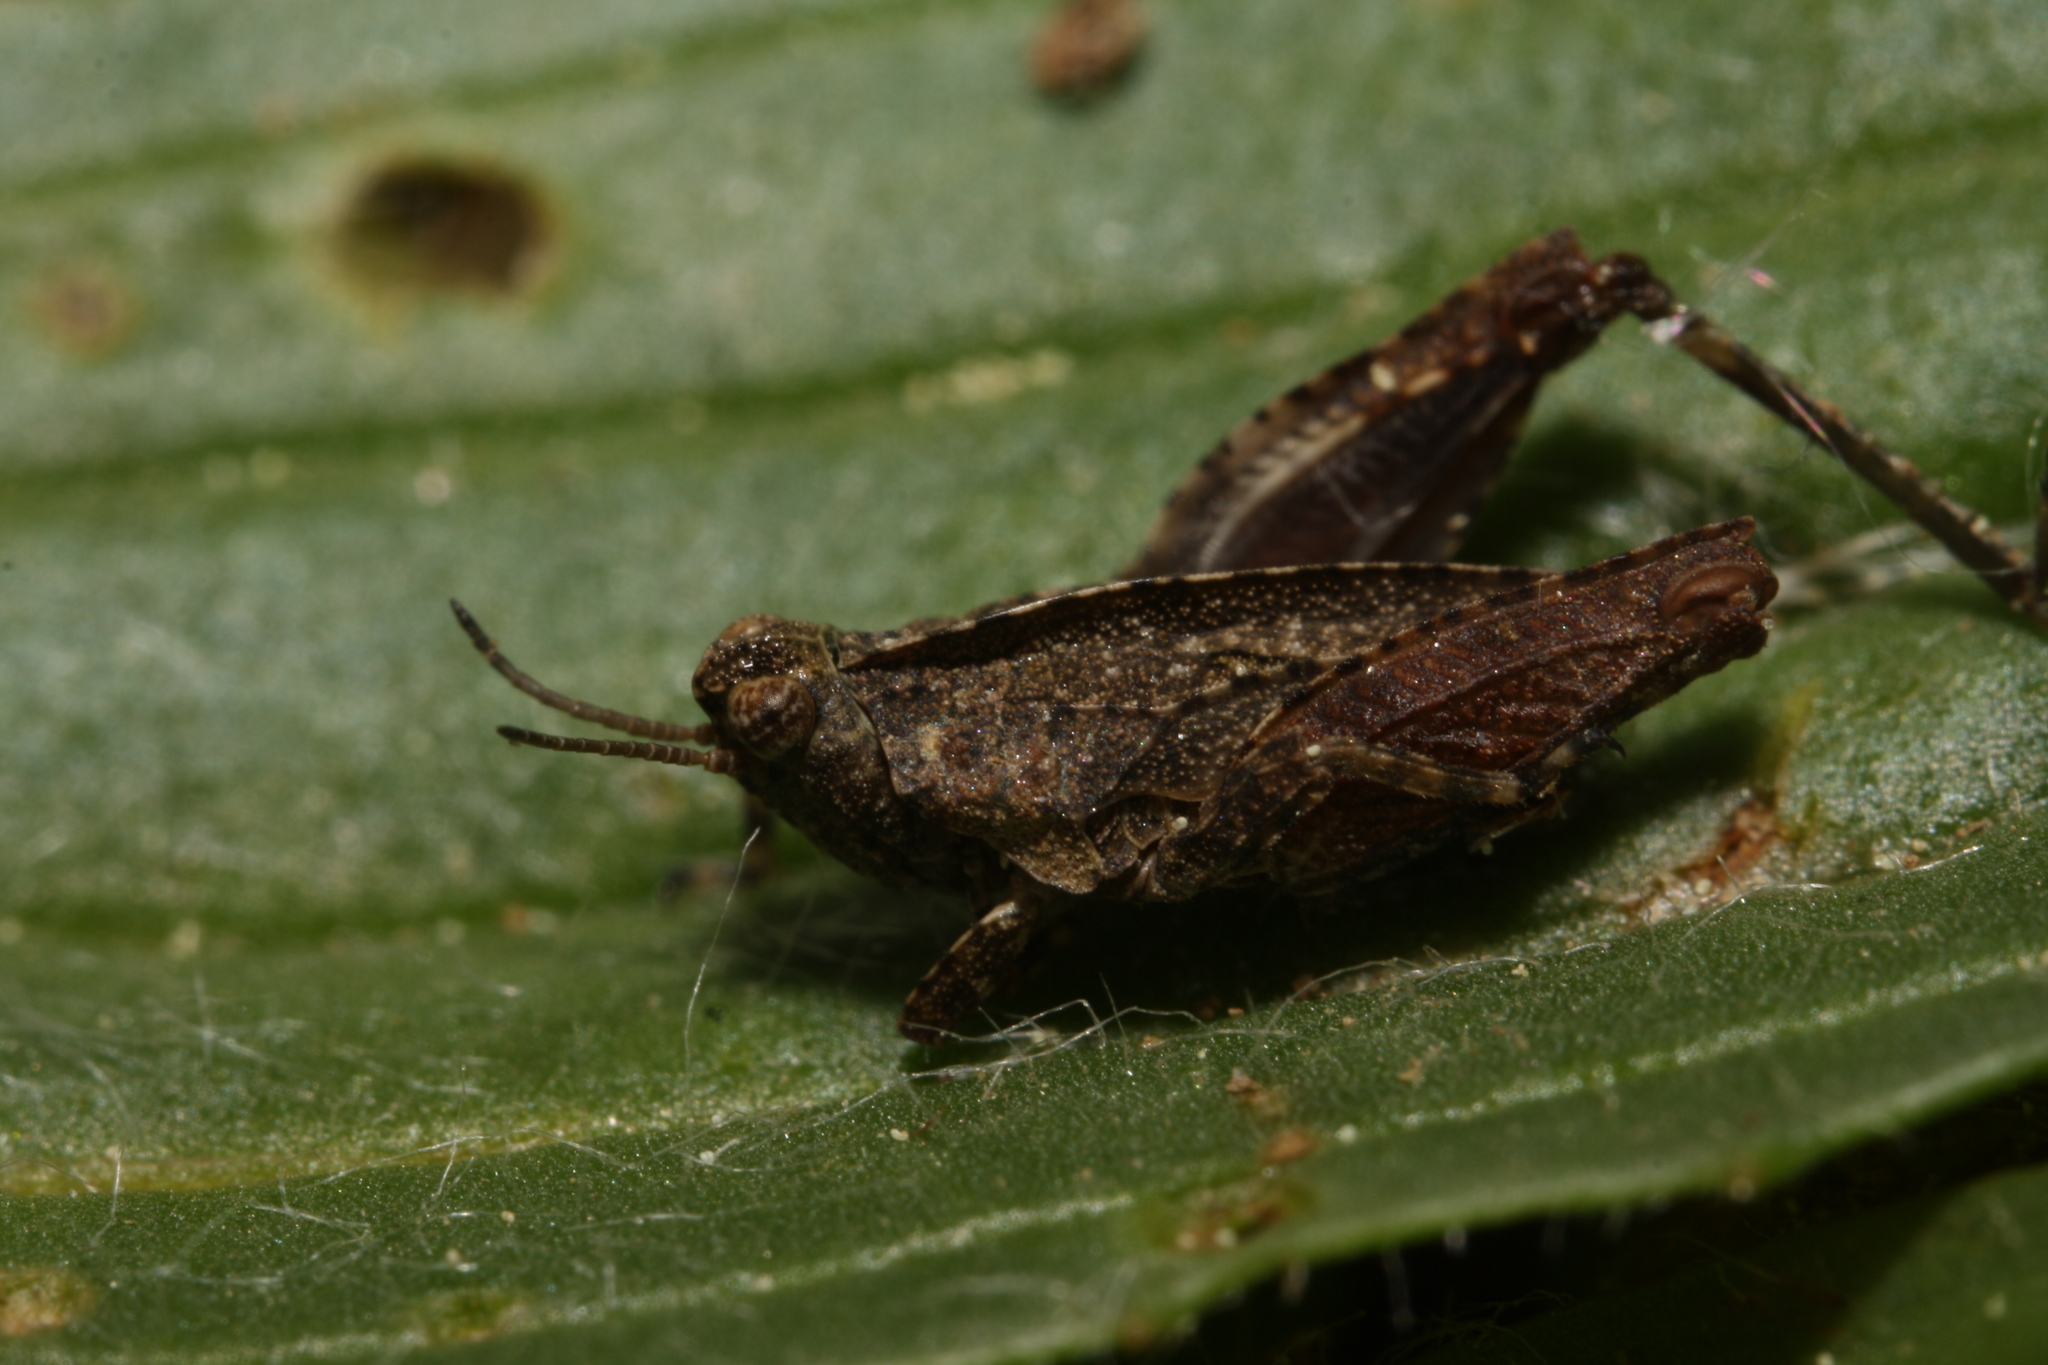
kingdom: Animalia
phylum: Arthropoda
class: Insecta
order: Orthoptera
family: Tetrigidae
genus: Tetrix
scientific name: Tetrix tenuicornis
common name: Long-horned groundhopper
